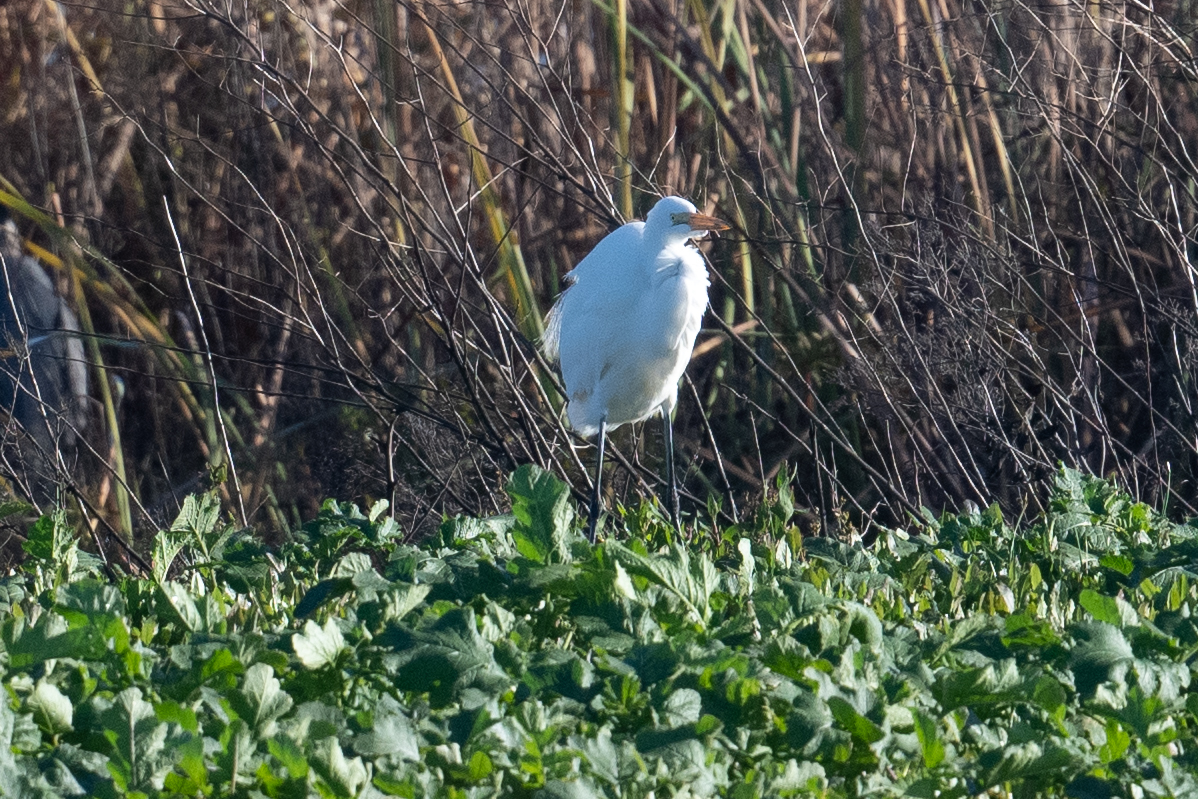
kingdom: Animalia
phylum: Chordata
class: Aves
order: Pelecaniformes
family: Ardeidae
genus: Ardea
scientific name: Ardea alba
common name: Great egret
